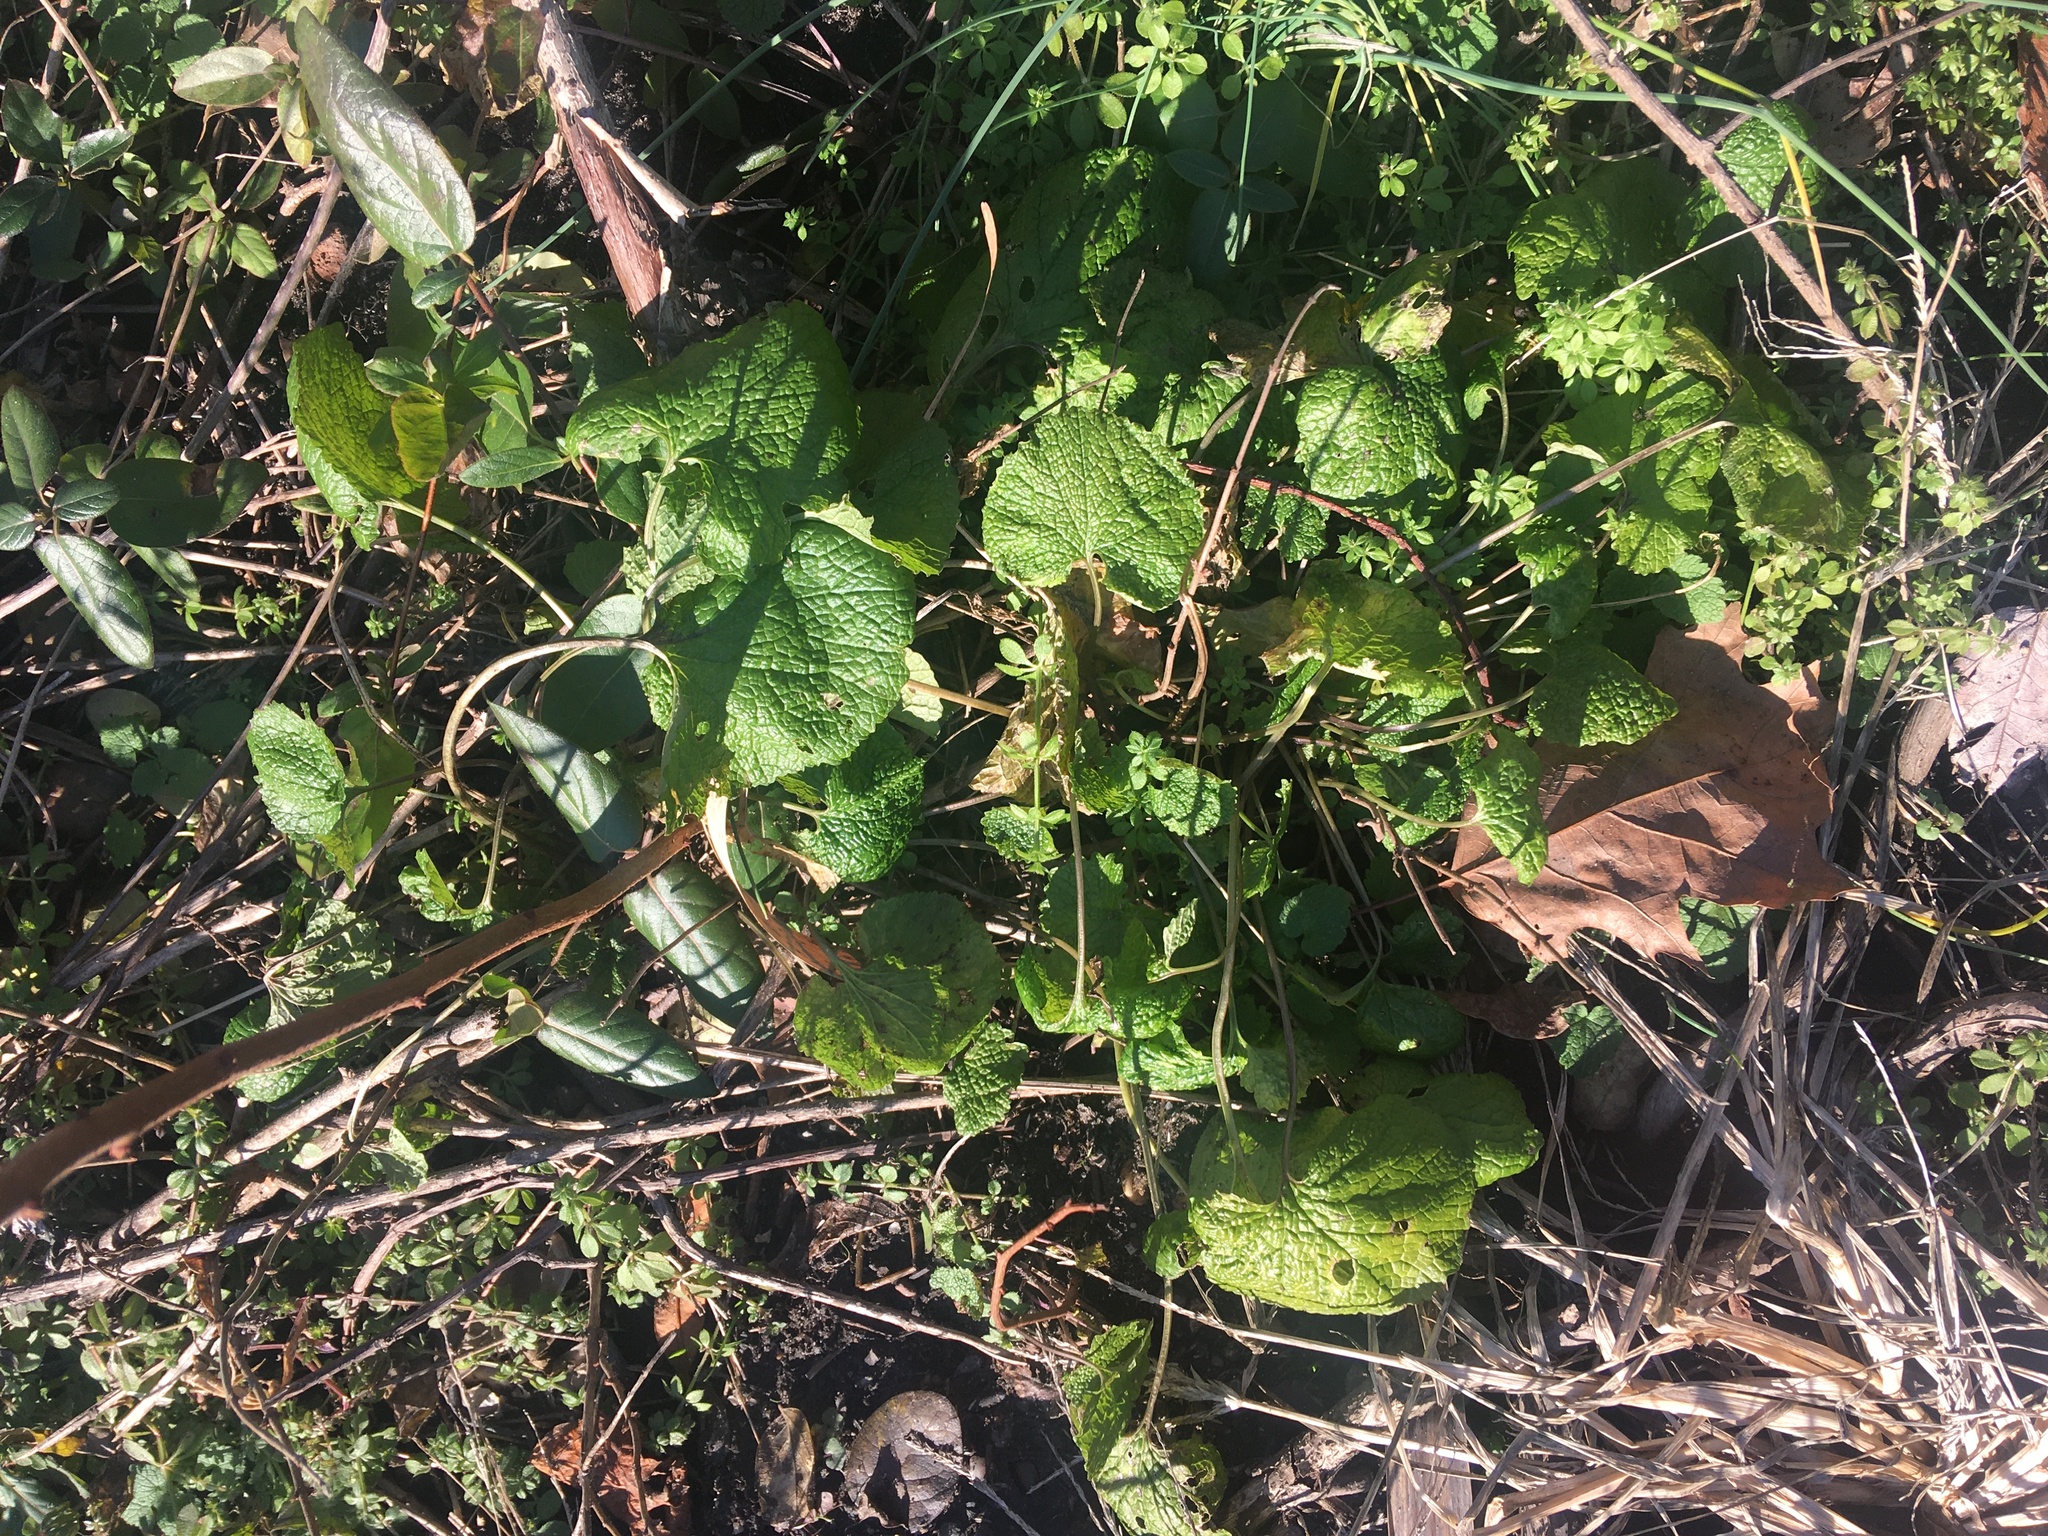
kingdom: Plantae
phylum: Tracheophyta
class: Magnoliopsida
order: Brassicales
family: Brassicaceae
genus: Alliaria
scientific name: Alliaria petiolata
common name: Garlic mustard
